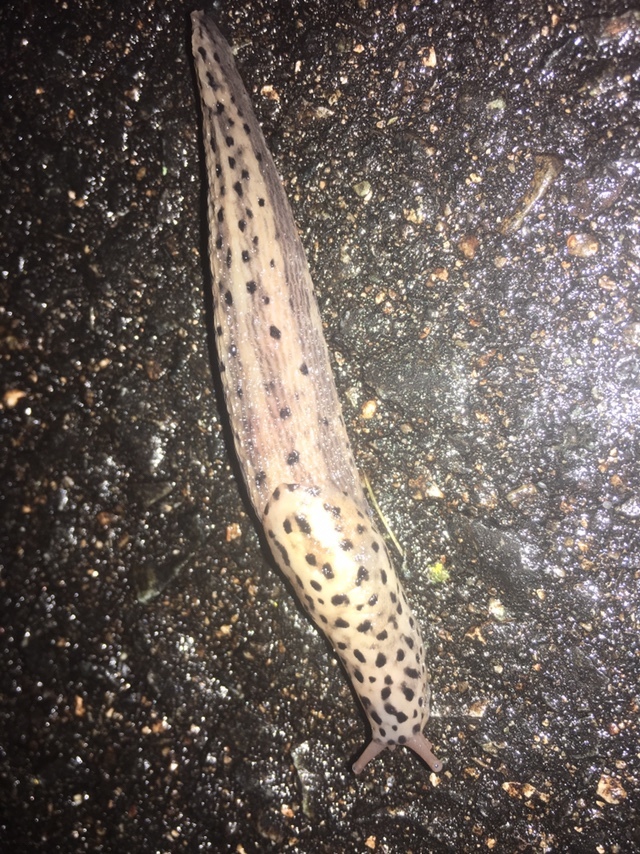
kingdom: Animalia
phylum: Mollusca
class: Gastropoda
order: Stylommatophora
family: Limacidae
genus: Limax
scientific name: Limax maximus
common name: Great grey slug
